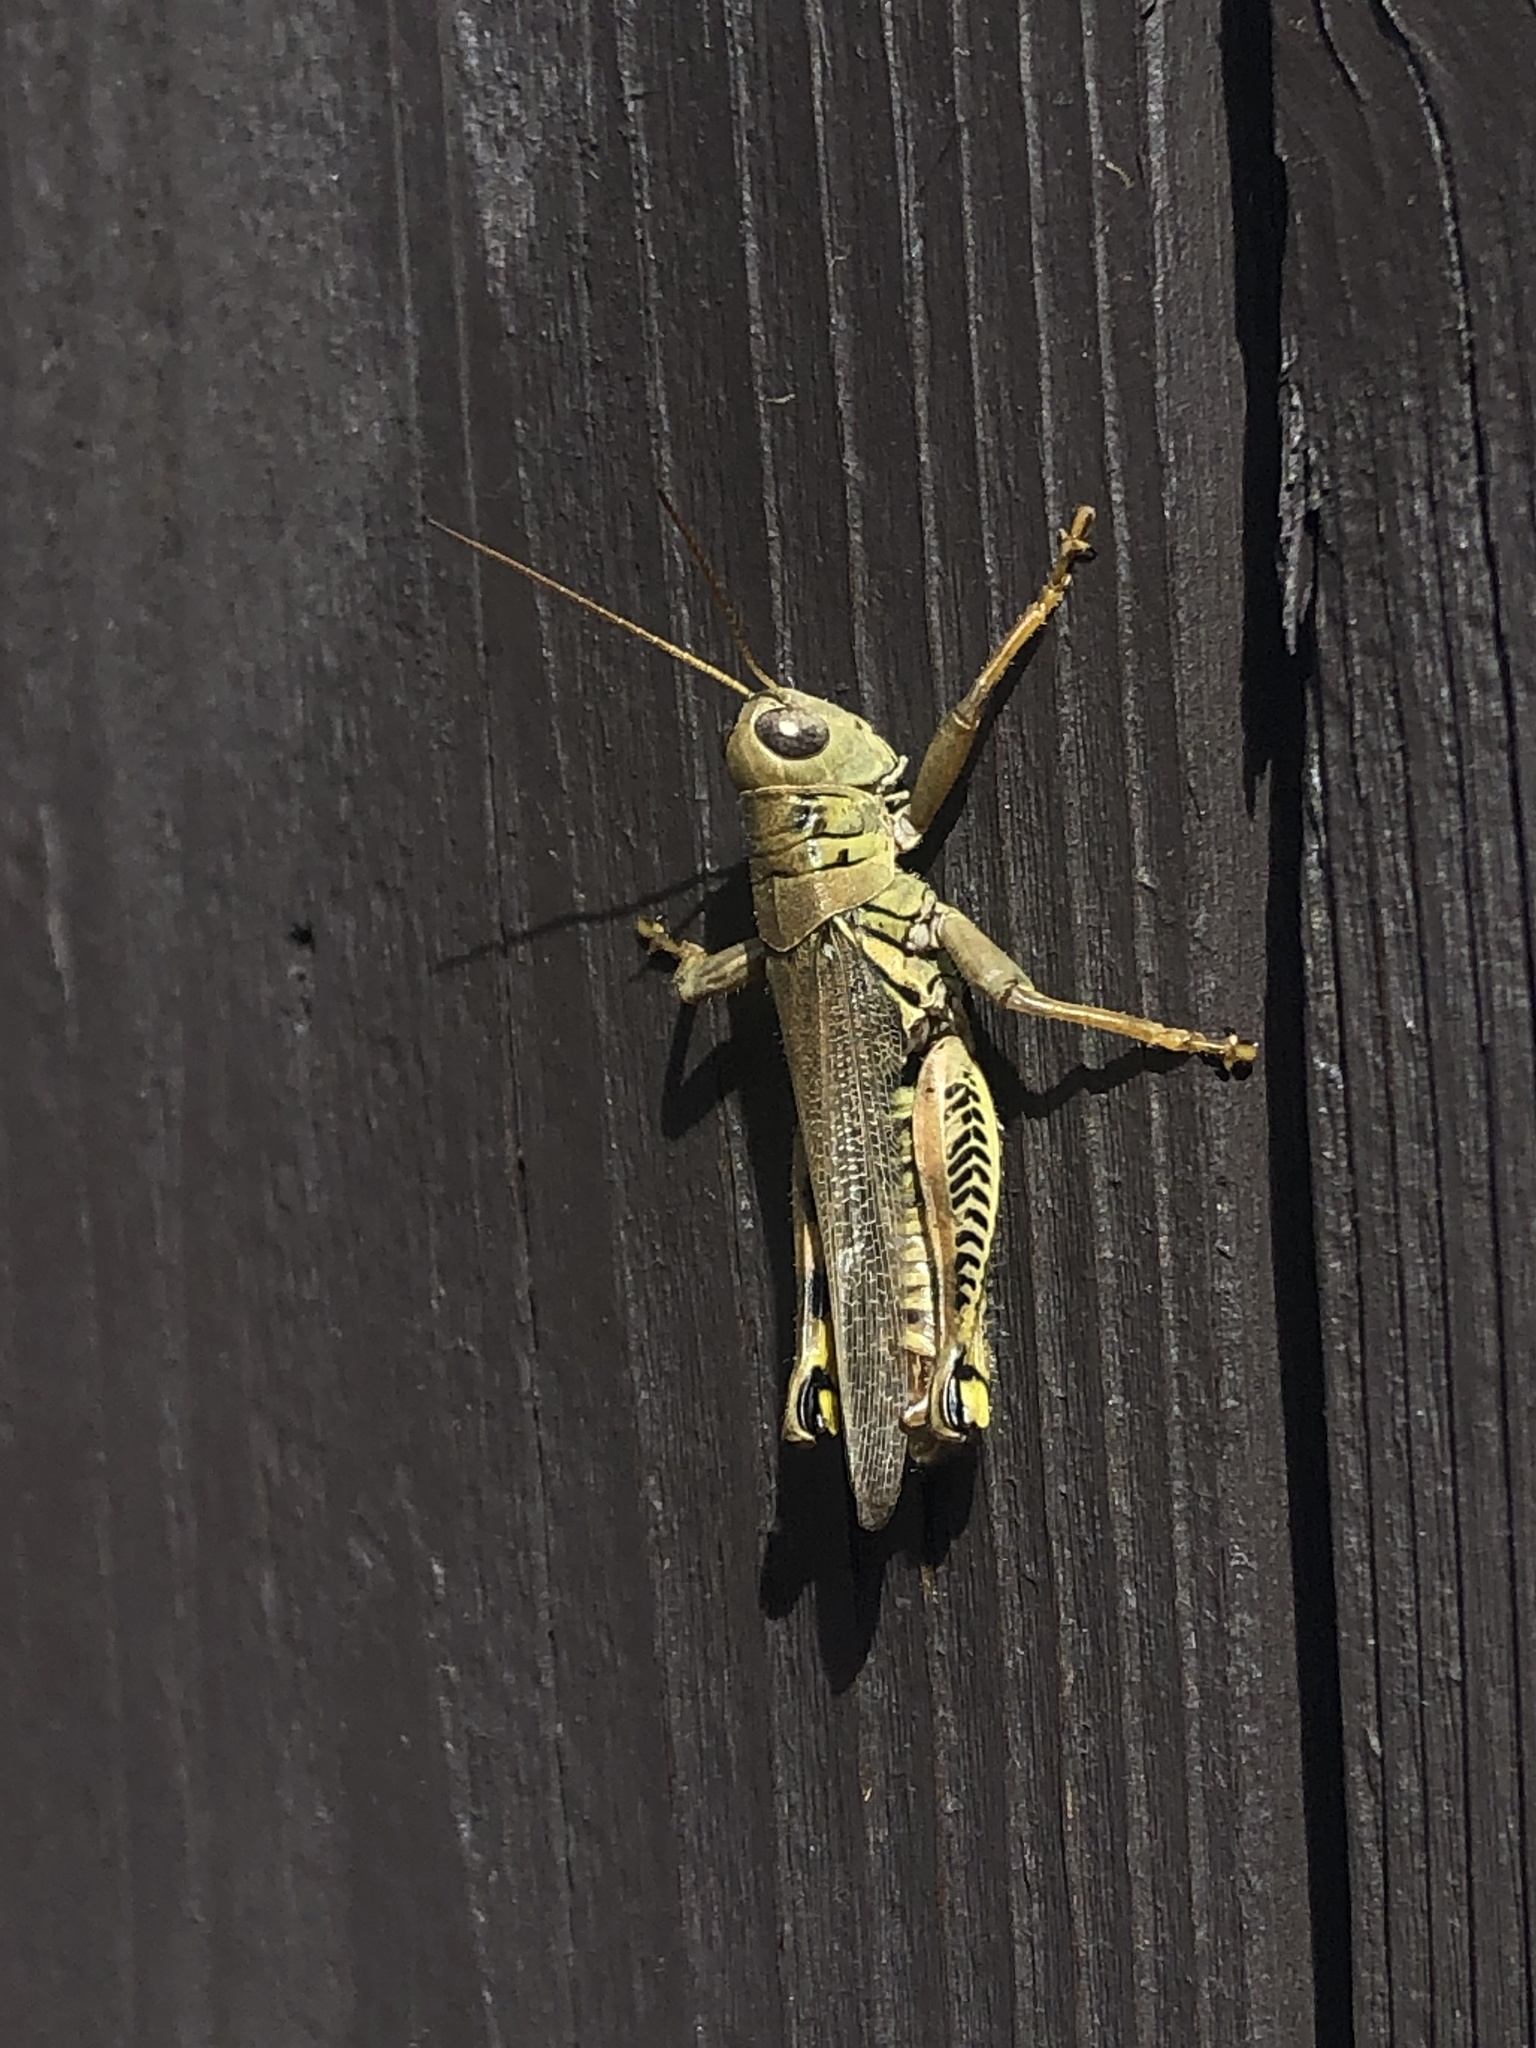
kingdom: Animalia
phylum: Arthropoda
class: Insecta
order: Orthoptera
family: Acrididae
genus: Melanoplus
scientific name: Melanoplus differentialis
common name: Differential grasshopper
